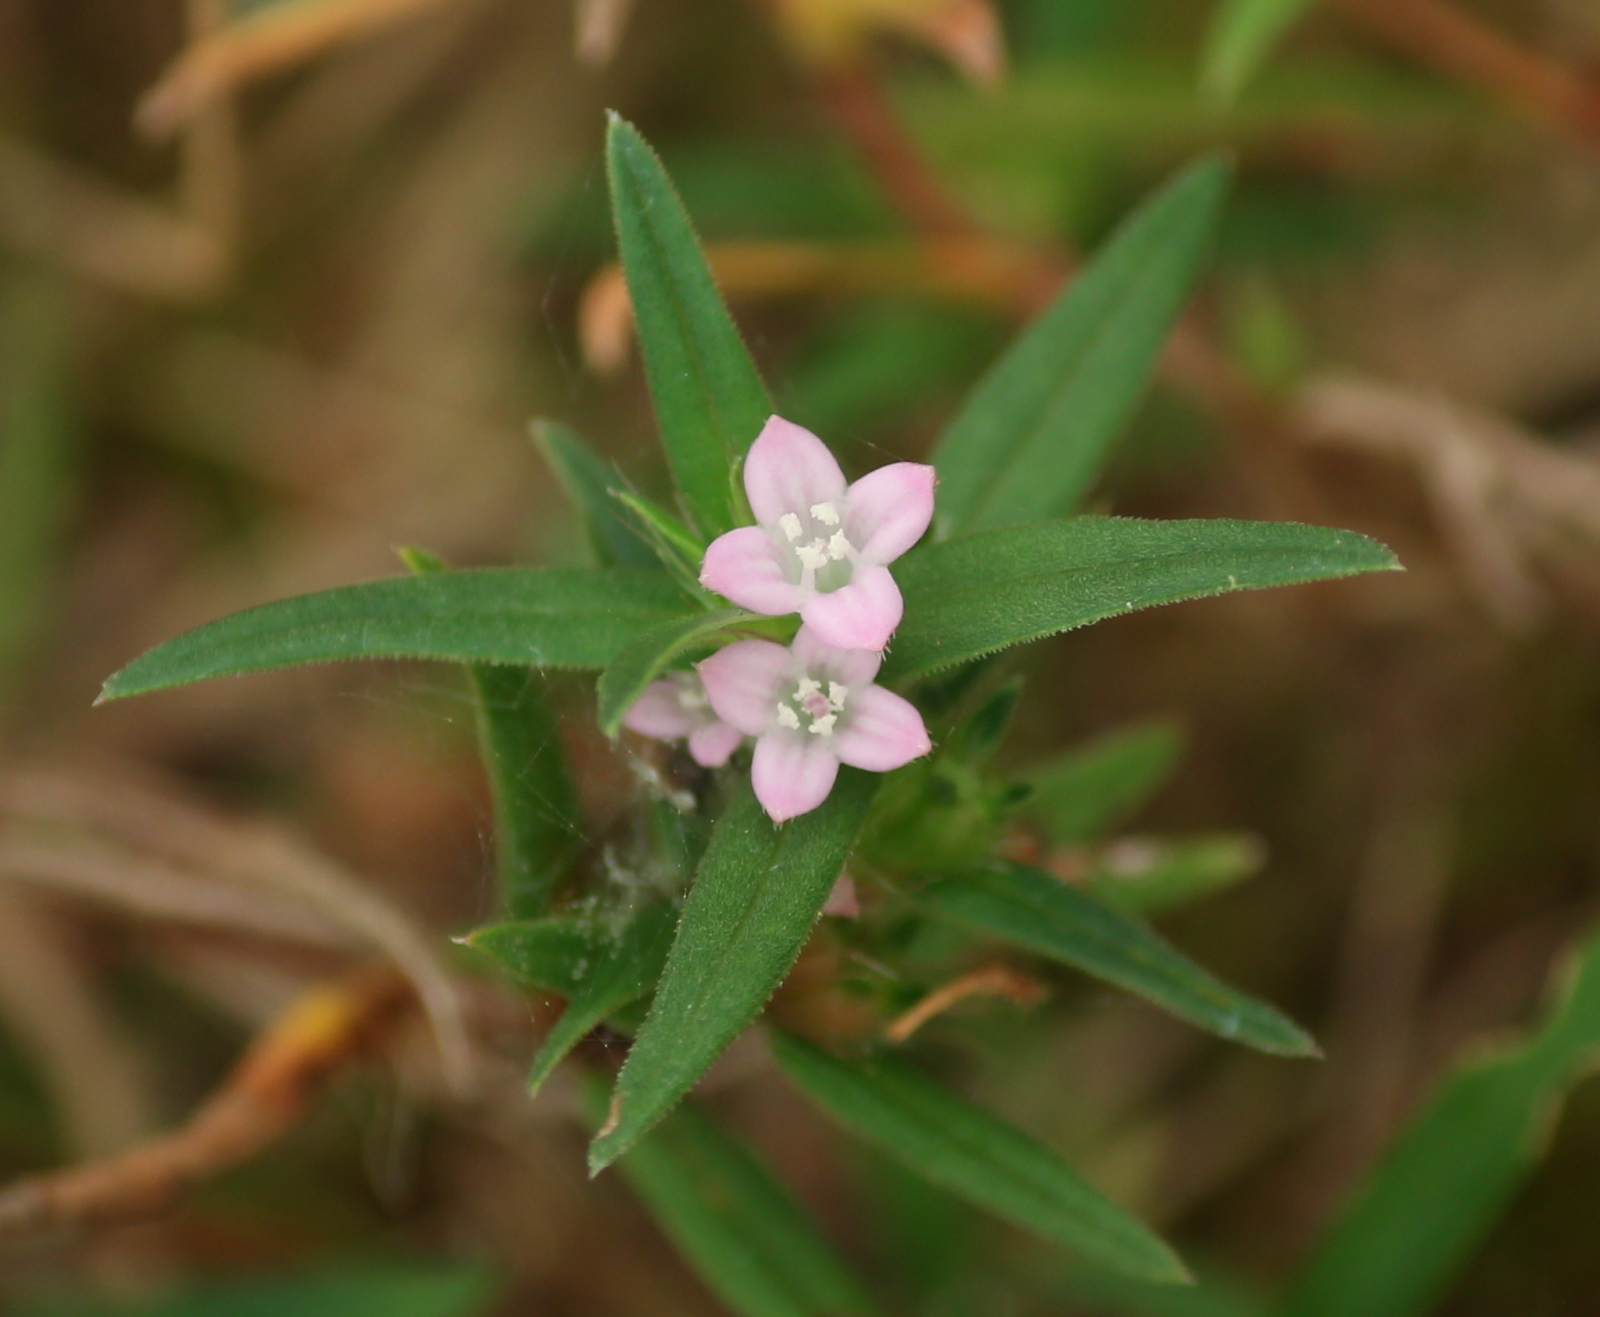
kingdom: Plantae
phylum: Tracheophyta
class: Magnoliopsida
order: Gentianales
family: Rubiaceae
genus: Hexasepalum
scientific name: Hexasepalum teres
